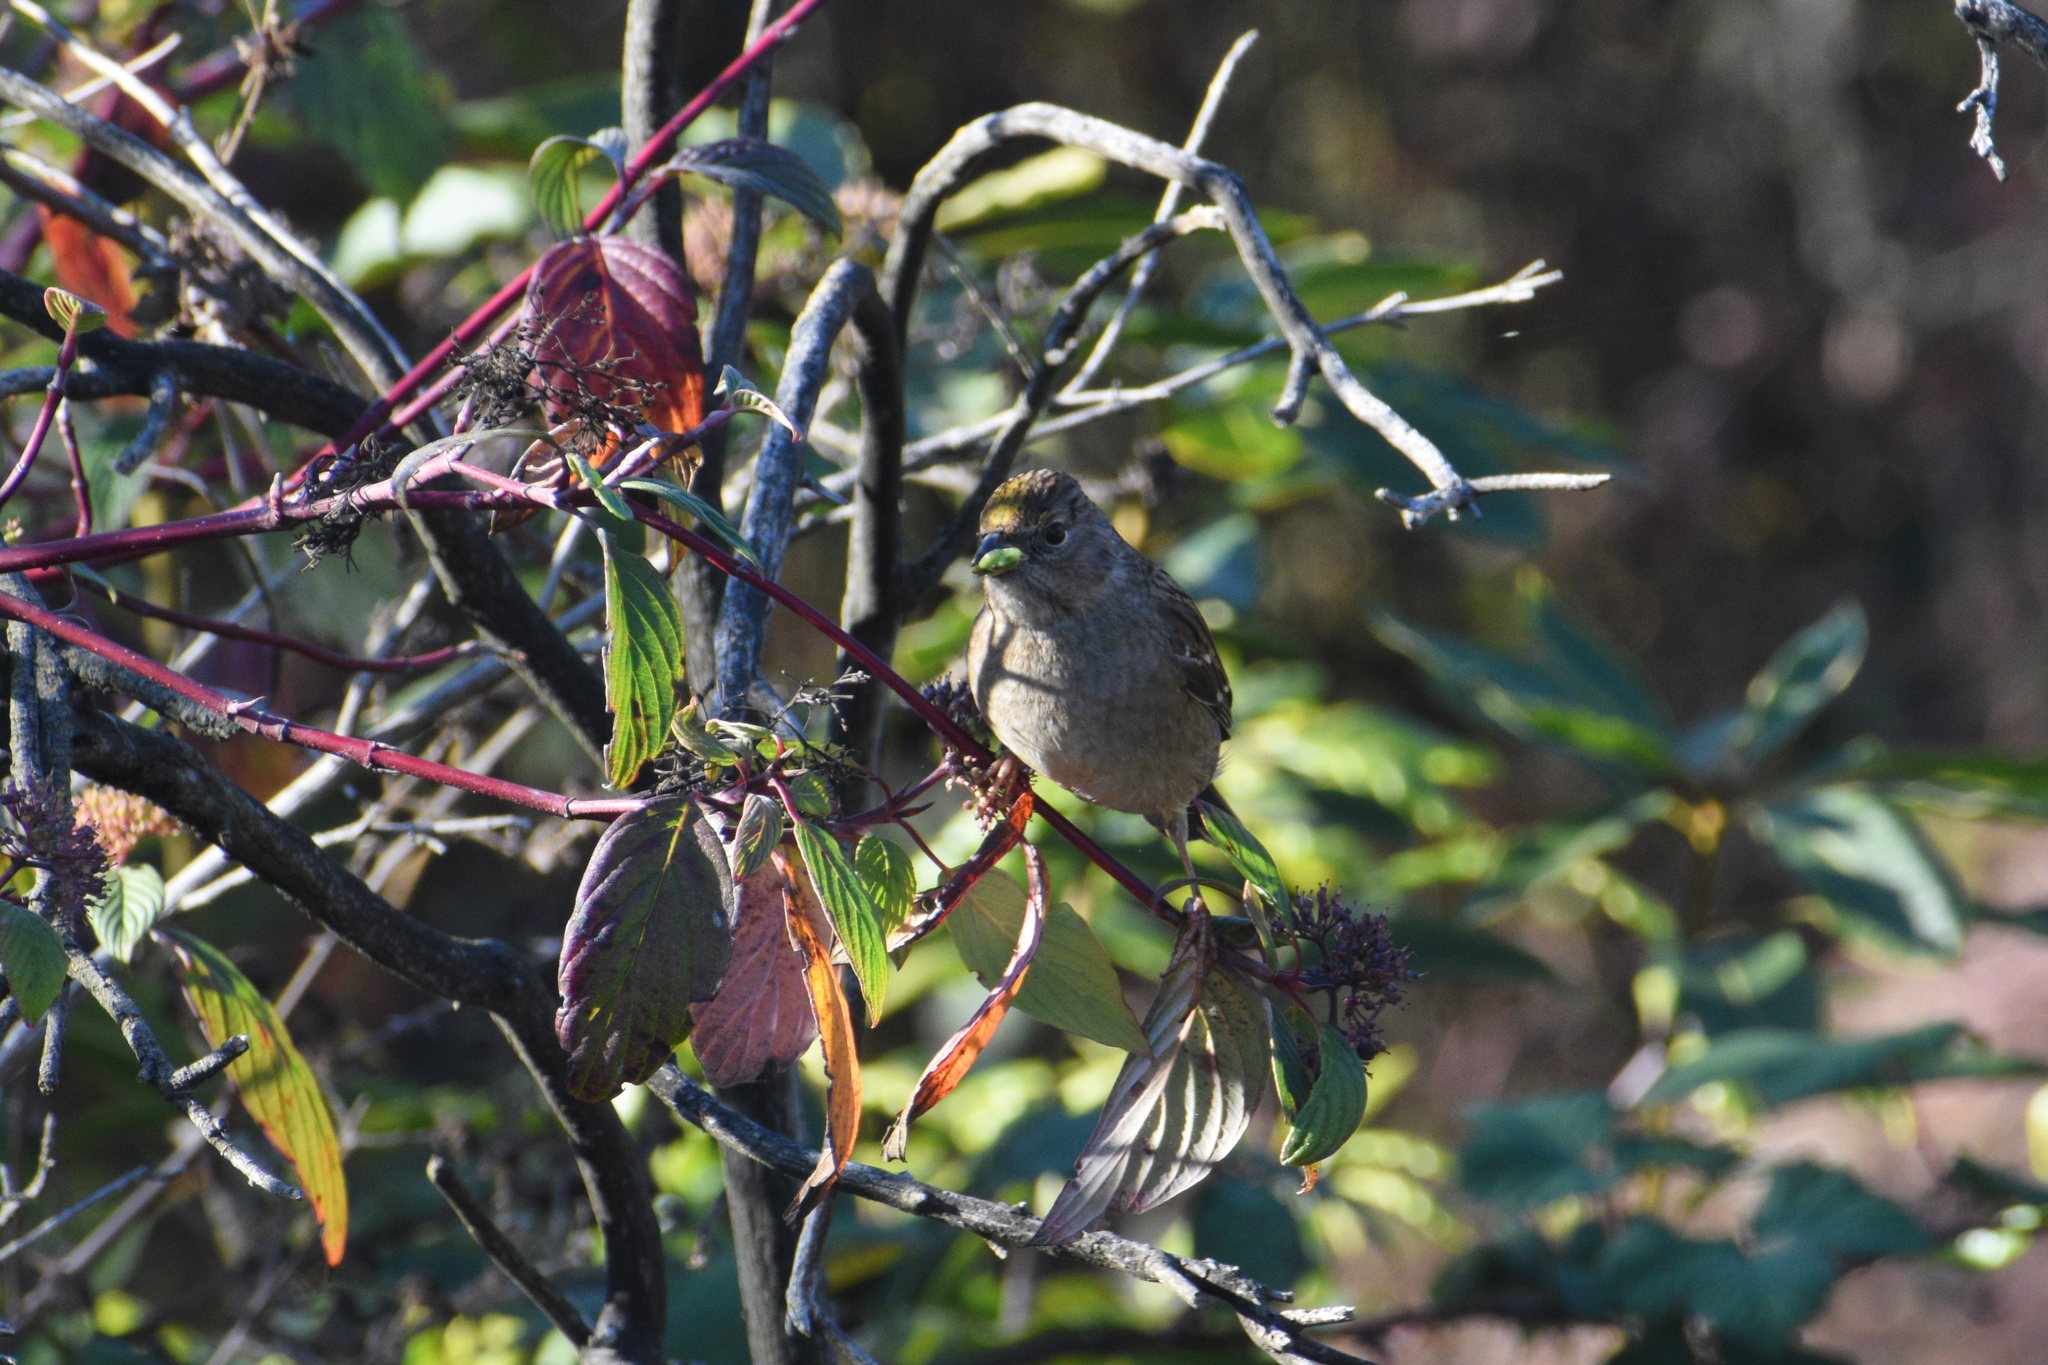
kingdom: Animalia
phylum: Chordata
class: Aves
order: Passeriformes
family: Passerellidae
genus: Zonotrichia
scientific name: Zonotrichia atricapilla
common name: Golden-crowned sparrow
